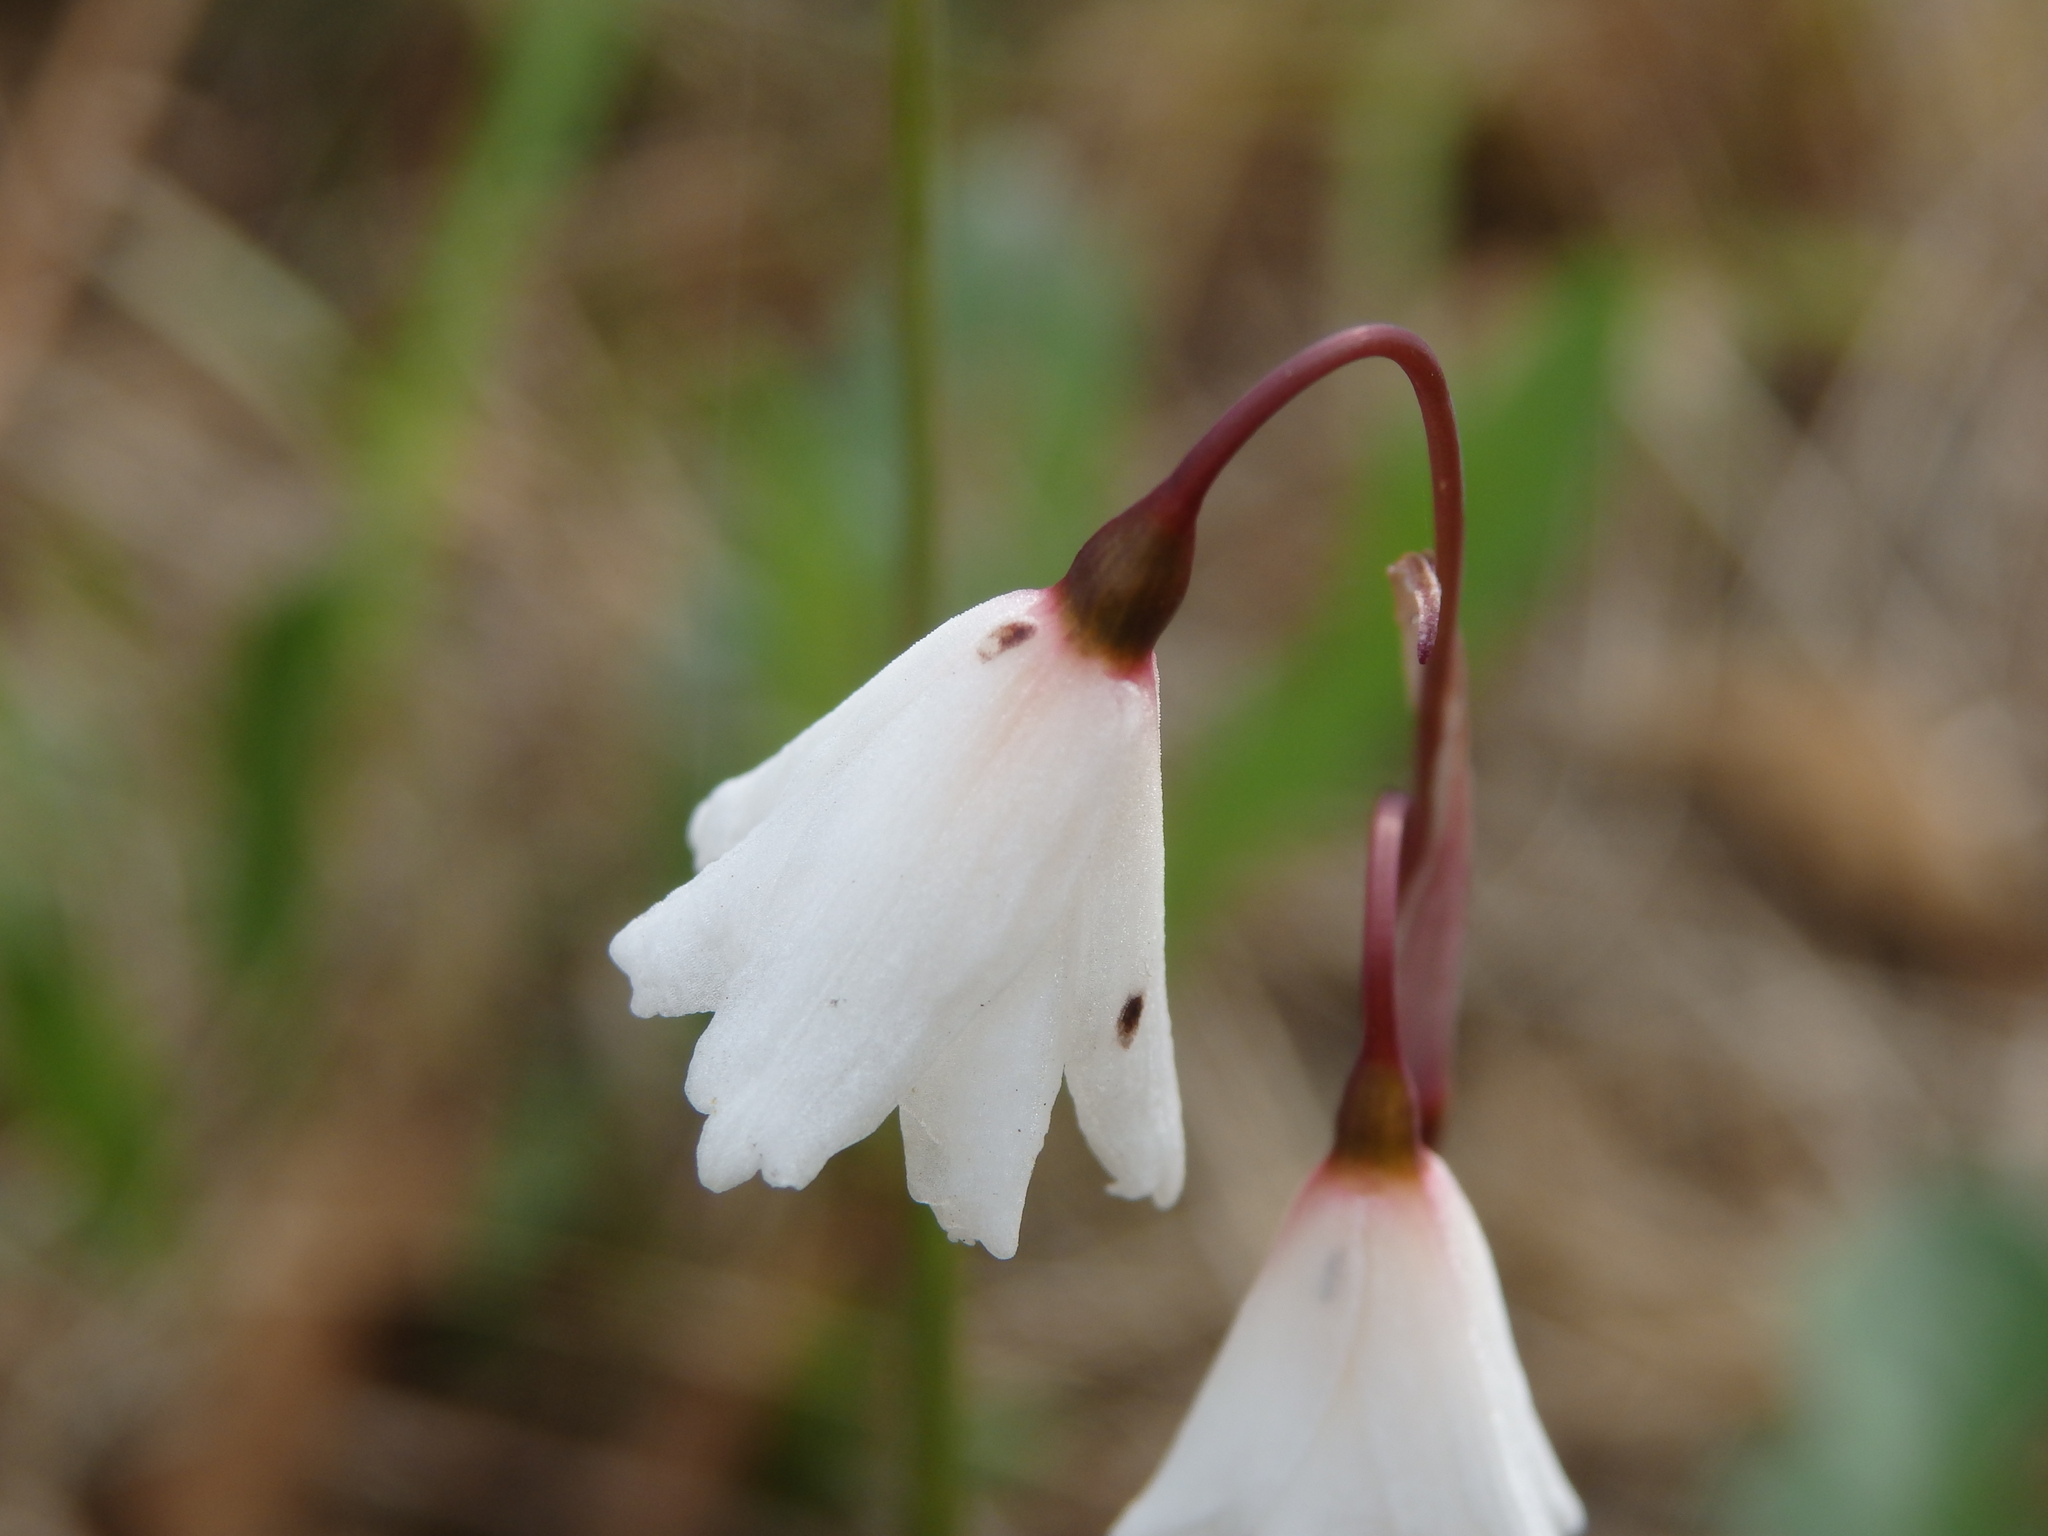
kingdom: Plantae
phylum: Tracheophyta
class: Liliopsida
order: Asparagales
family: Amaryllidaceae
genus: Acis
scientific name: Acis autumnalis
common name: Autumn snowflake
